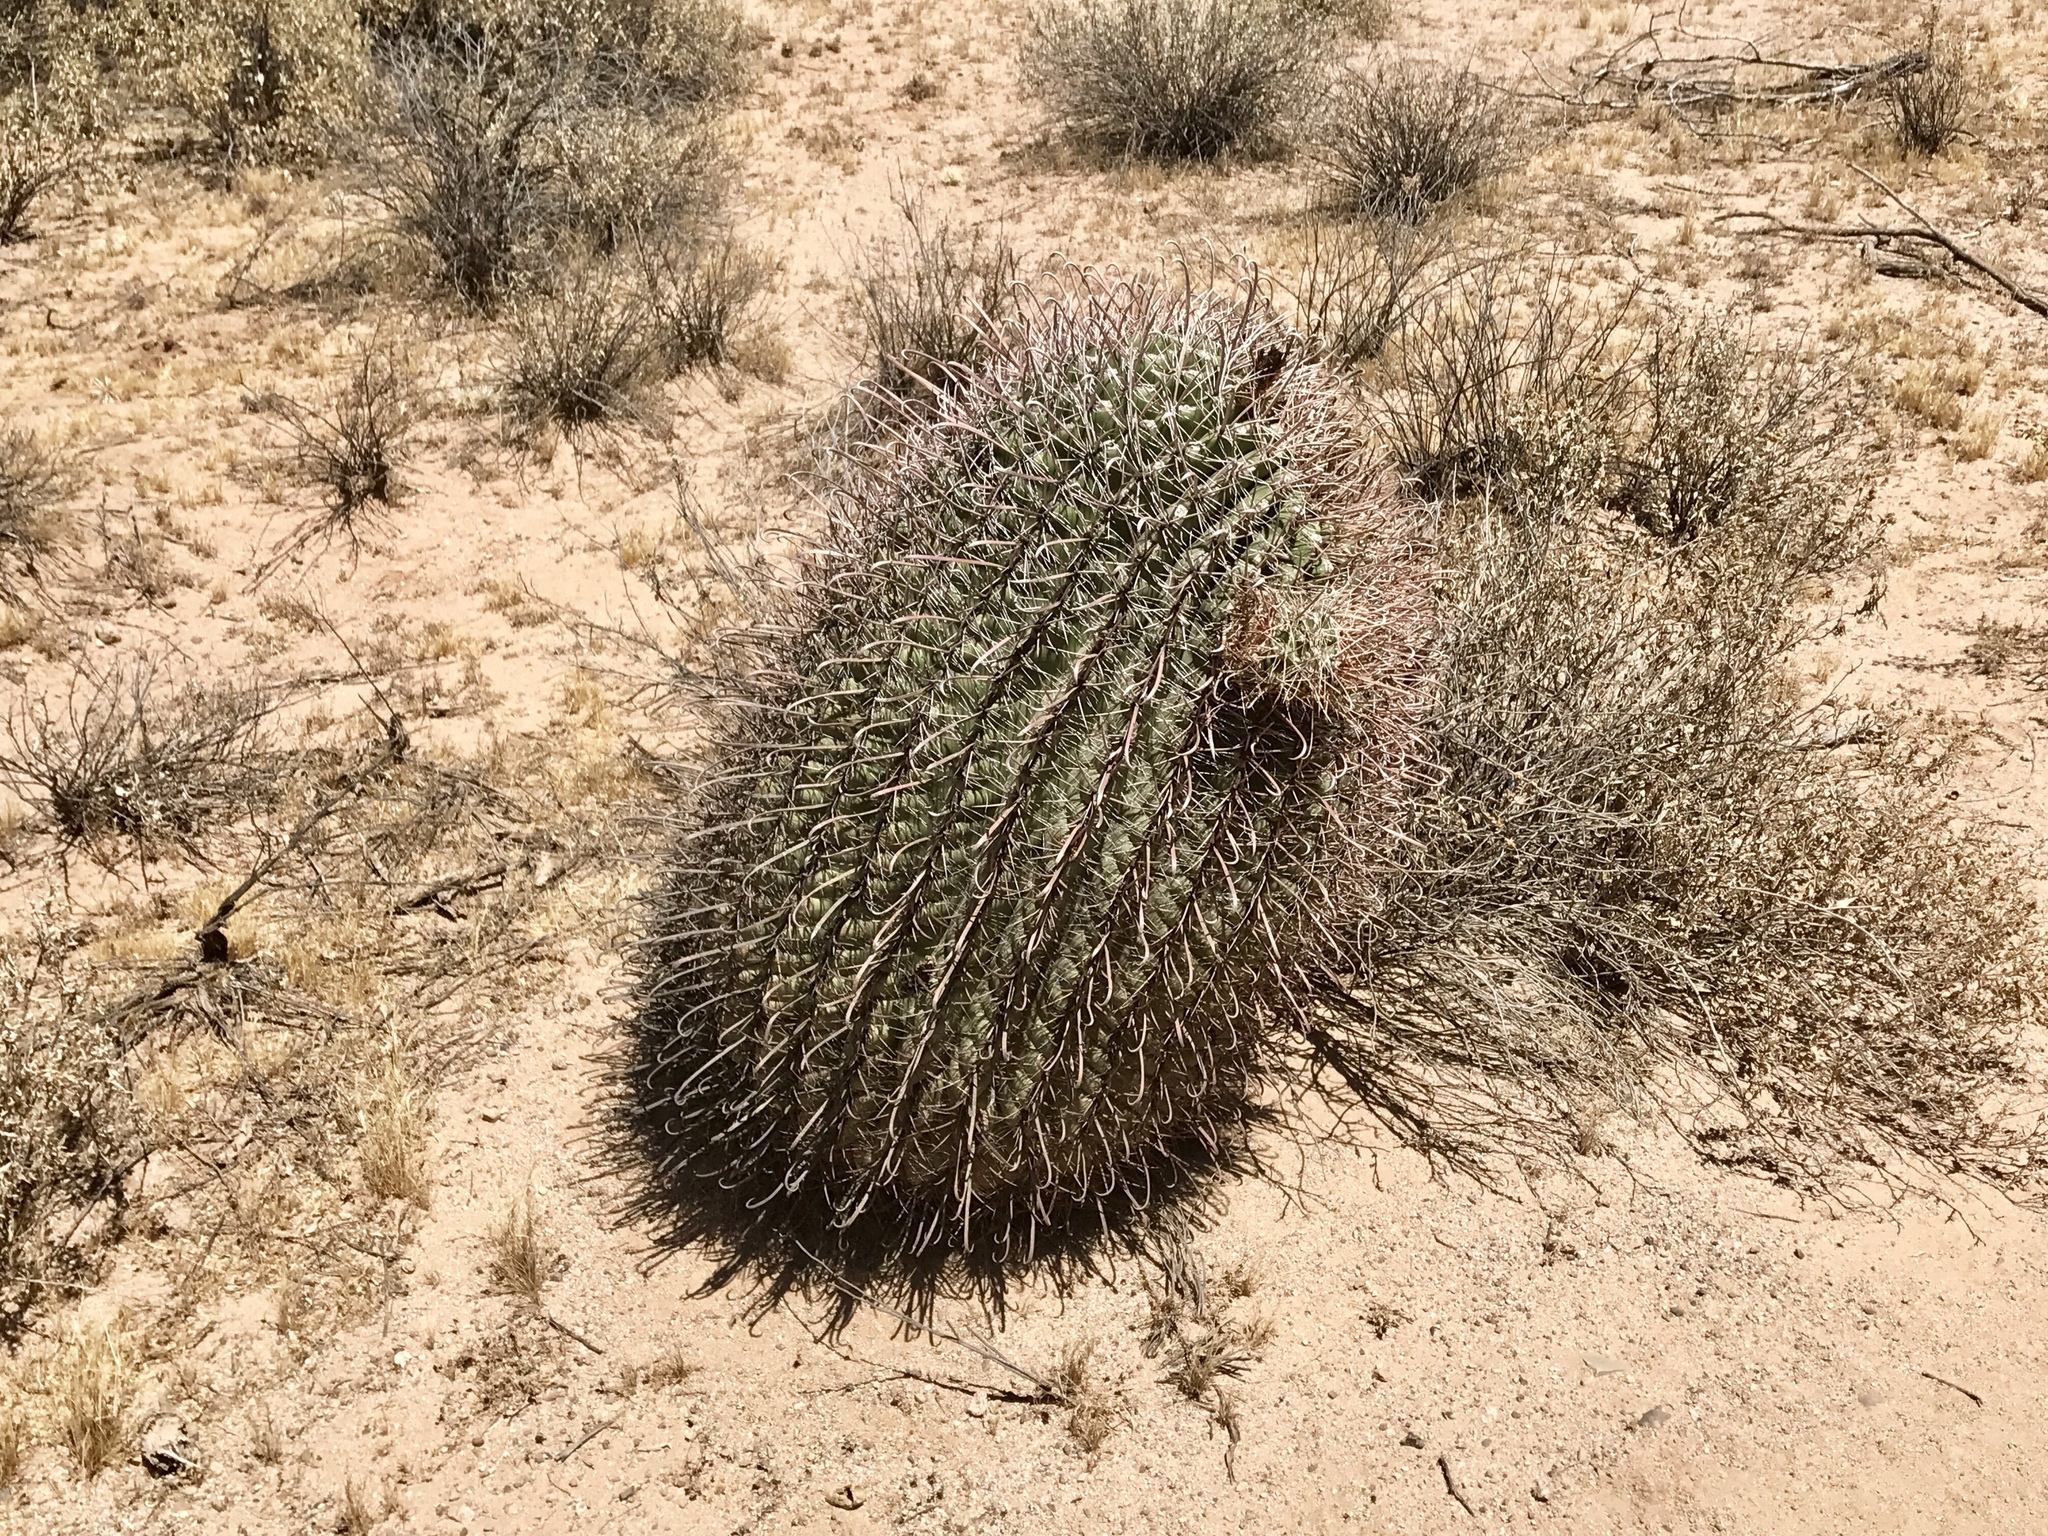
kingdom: Plantae
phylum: Tracheophyta
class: Magnoliopsida
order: Caryophyllales
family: Cactaceae
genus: Ferocactus
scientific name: Ferocactus wislizeni
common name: Candy barrel cactus
